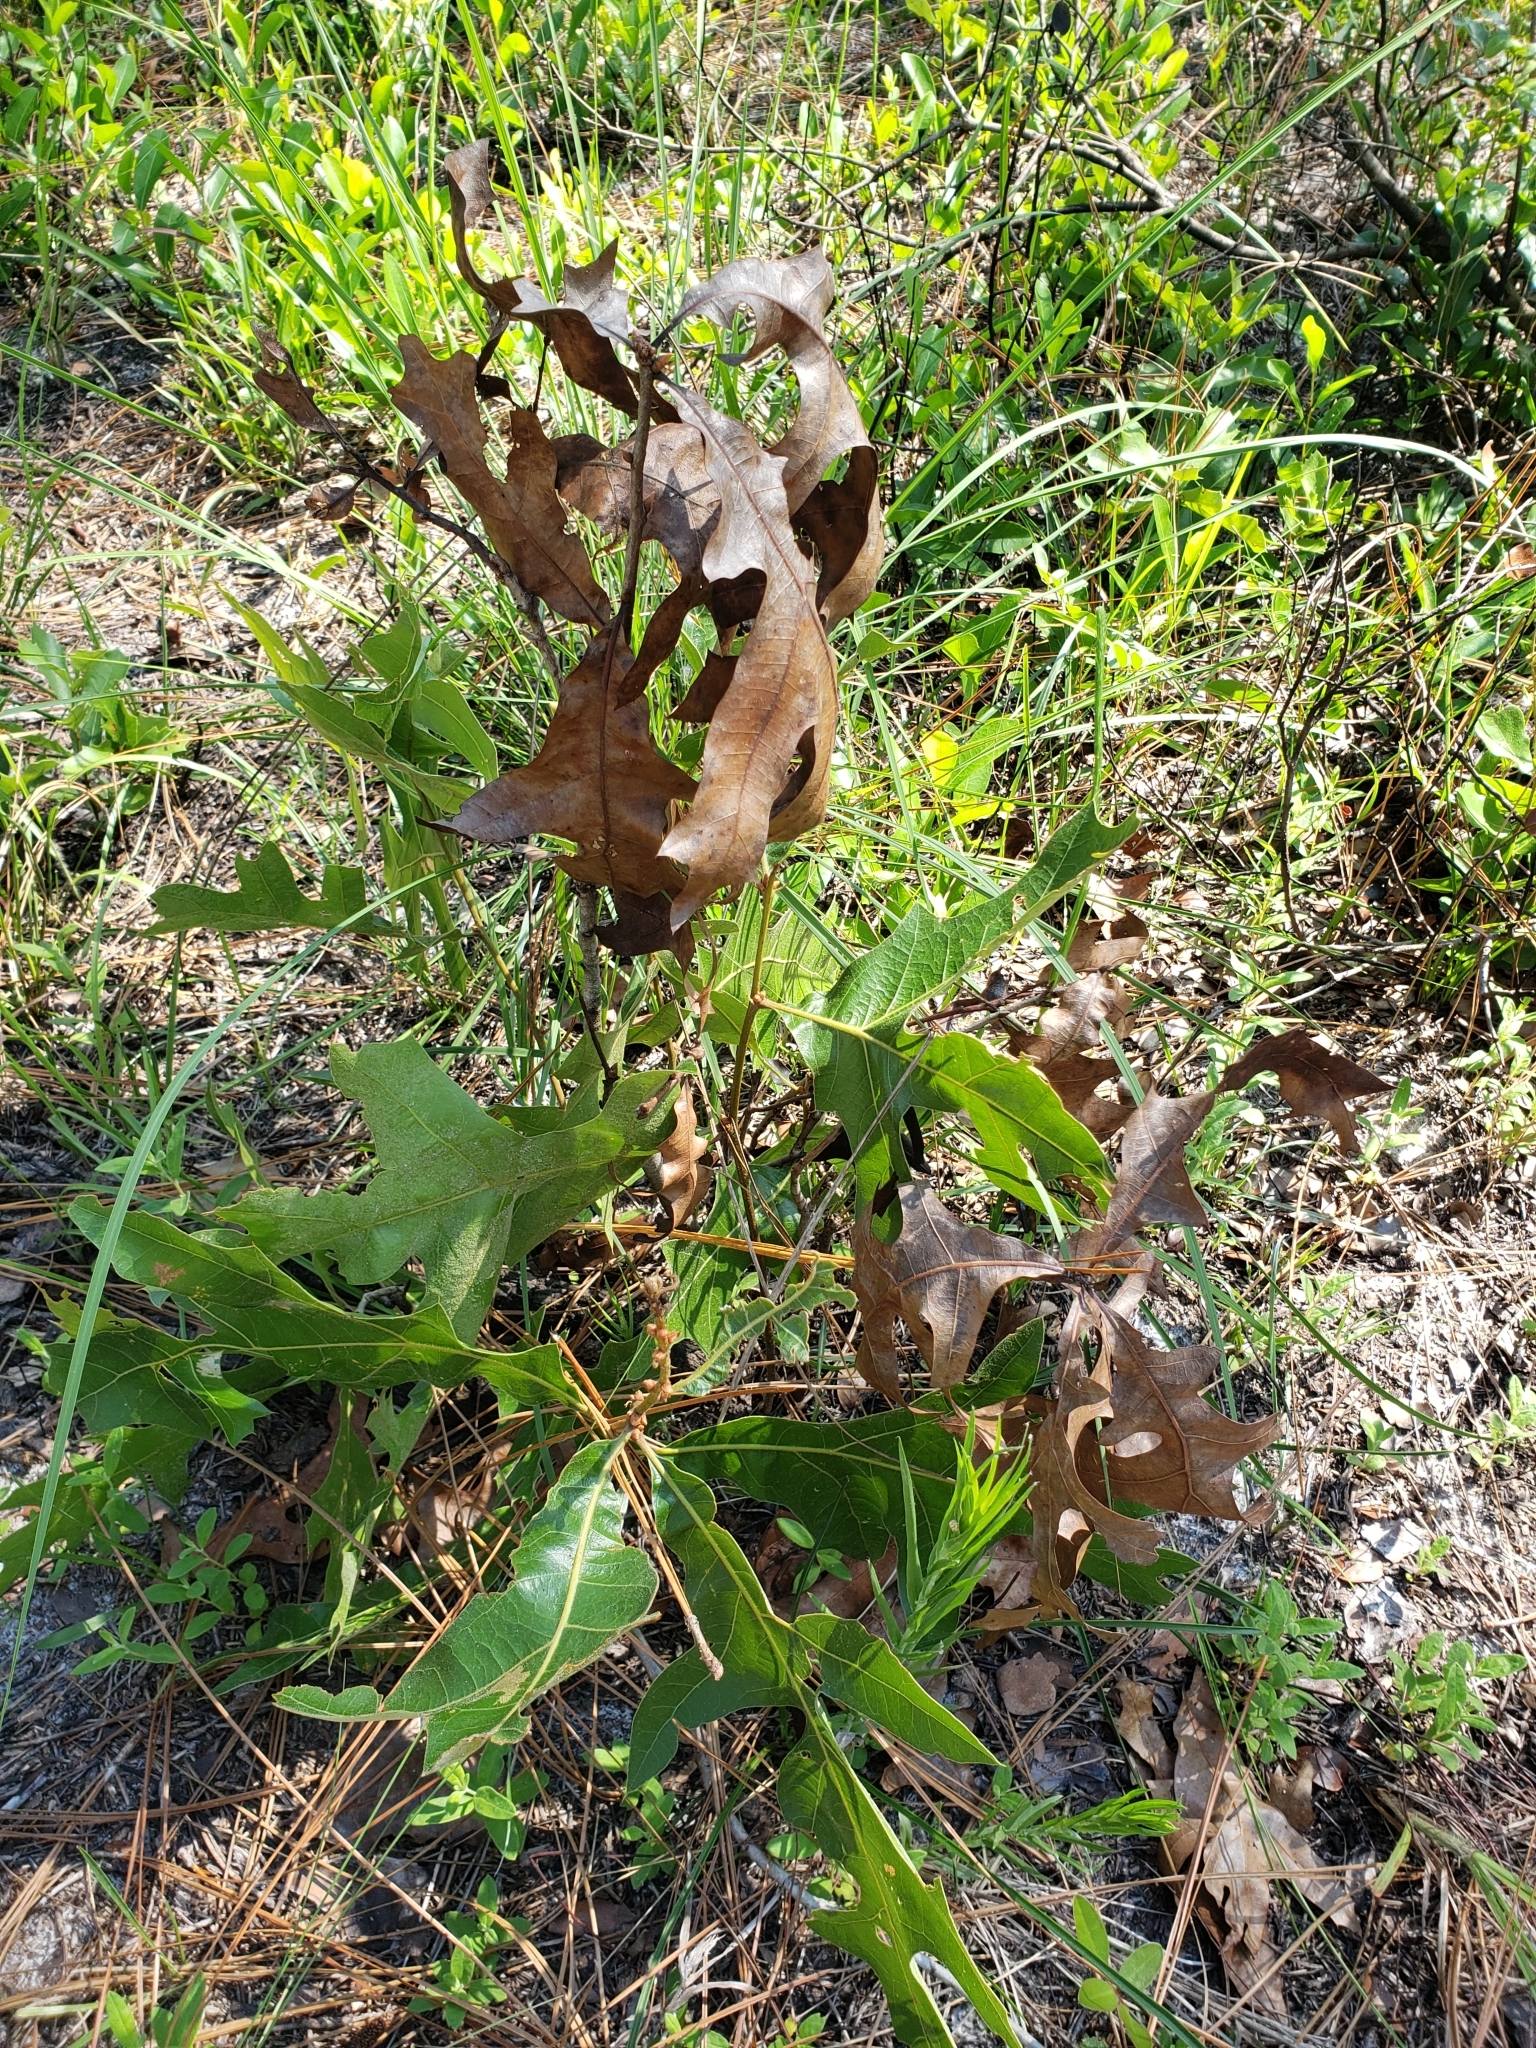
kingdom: Plantae
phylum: Tracheophyta
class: Magnoliopsida
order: Fagales
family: Fagaceae
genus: Quercus
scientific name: Quercus laevis
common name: Turkey oak
